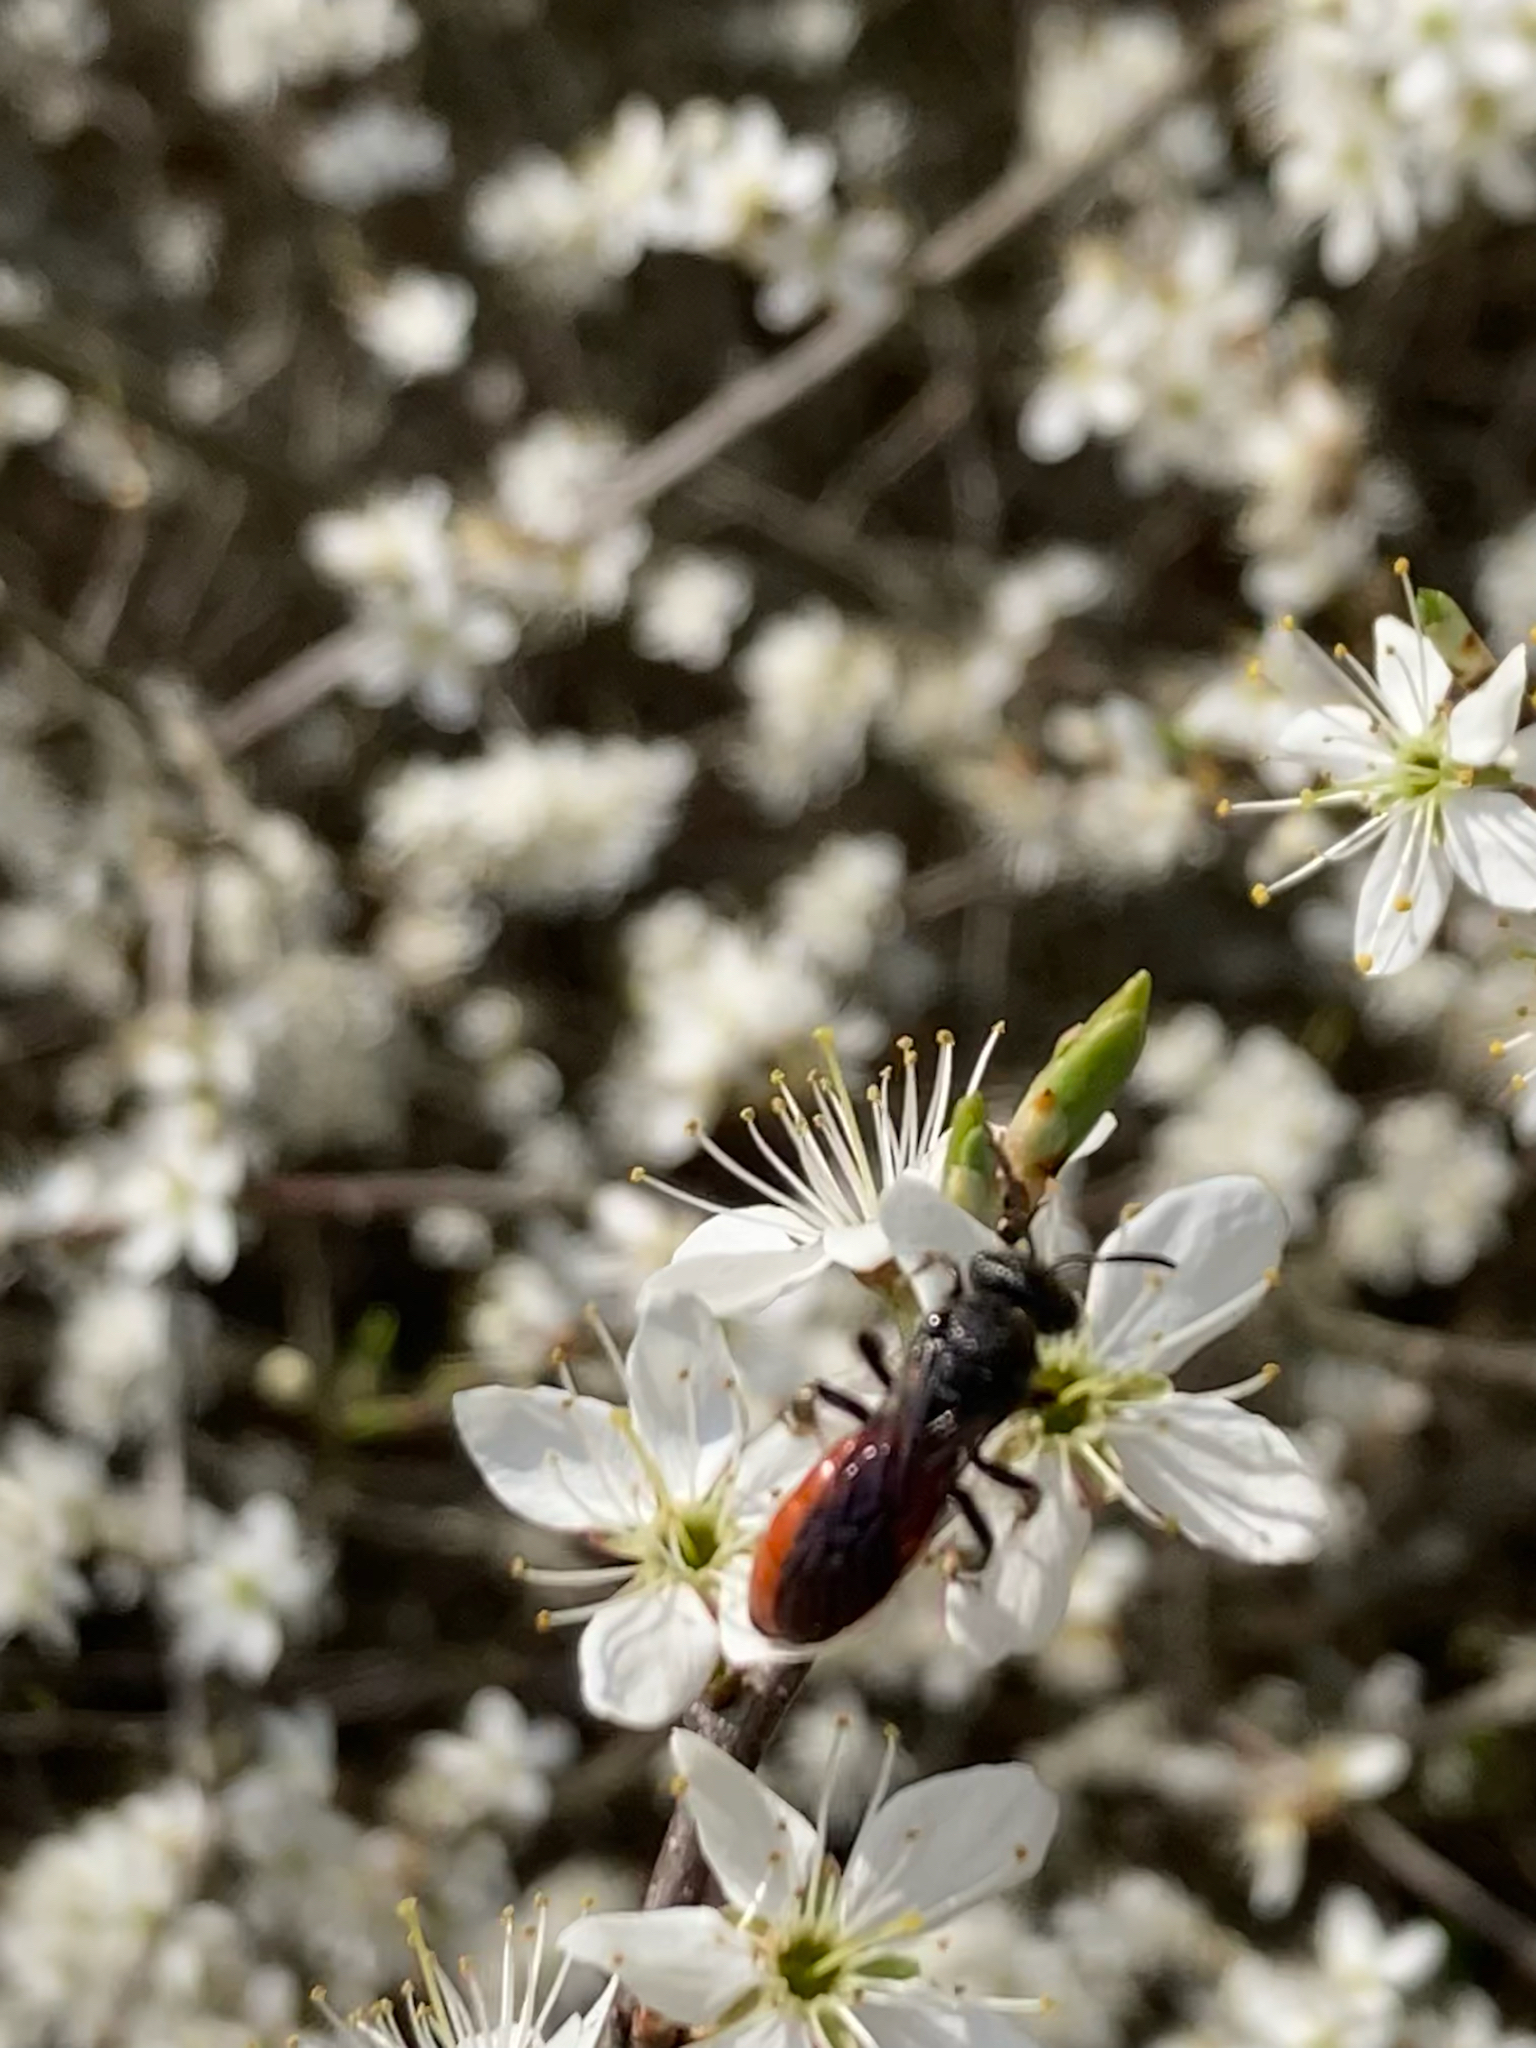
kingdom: Animalia
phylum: Arthropoda
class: Insecta
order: Hymenoptera
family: Halictidae
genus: Sphecodes
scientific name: Sphecodes albilabris
